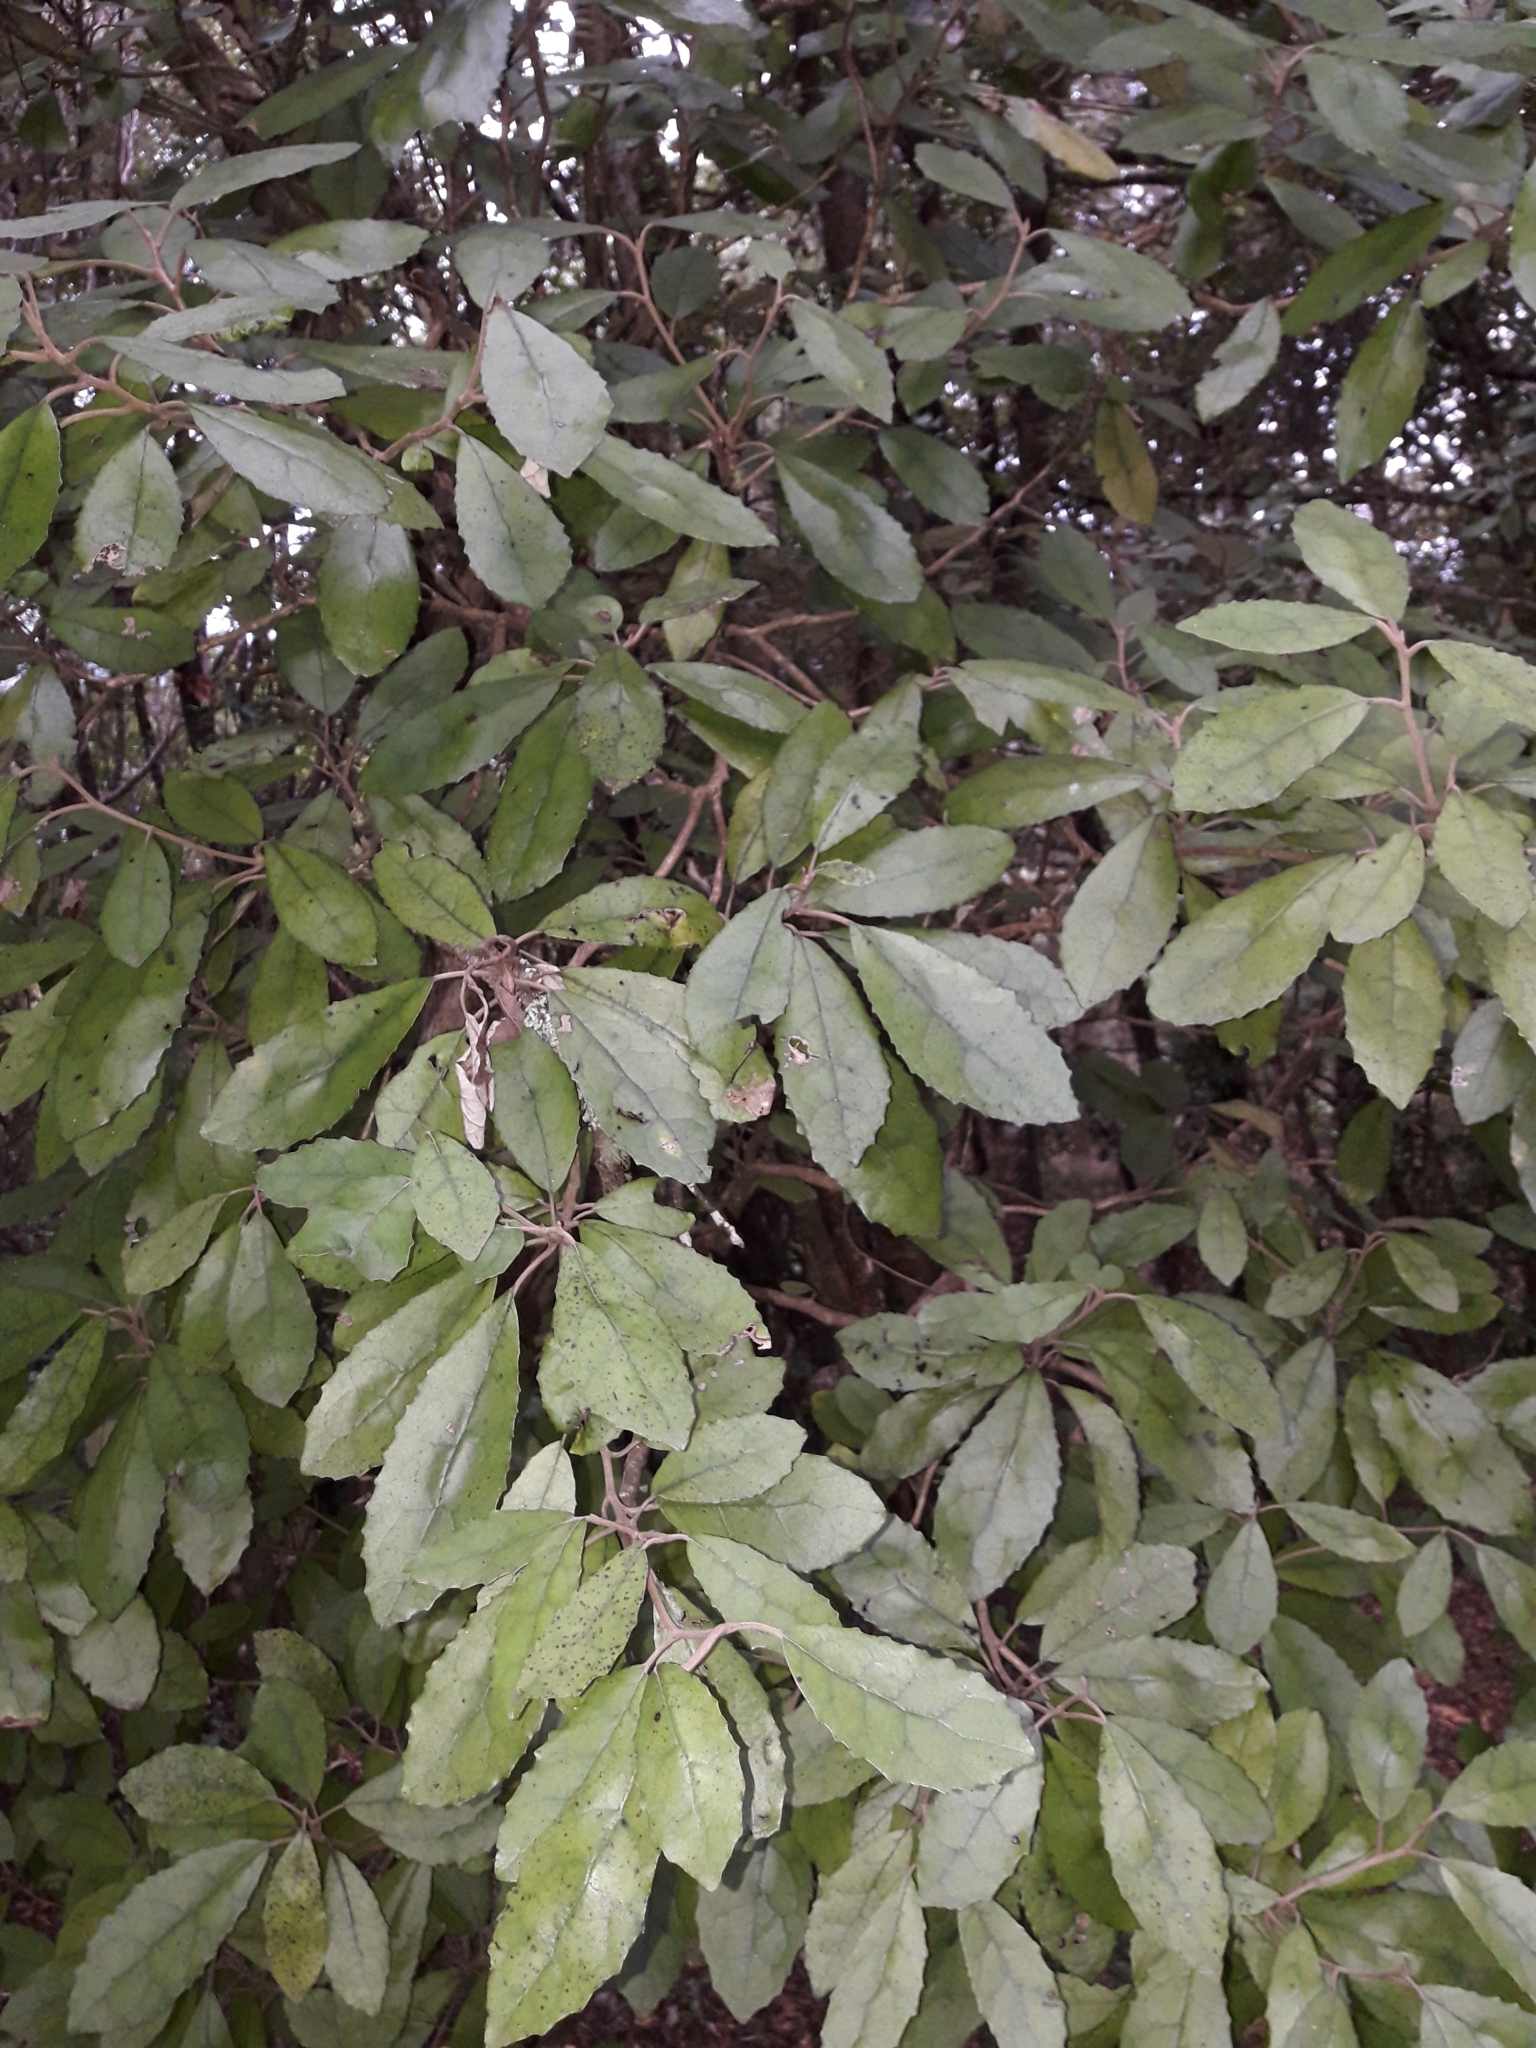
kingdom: Plantae
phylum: Tracheophyta
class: Magnoliopsida
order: Asterales
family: Asteraceae
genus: Olearia
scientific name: Olearia rani
